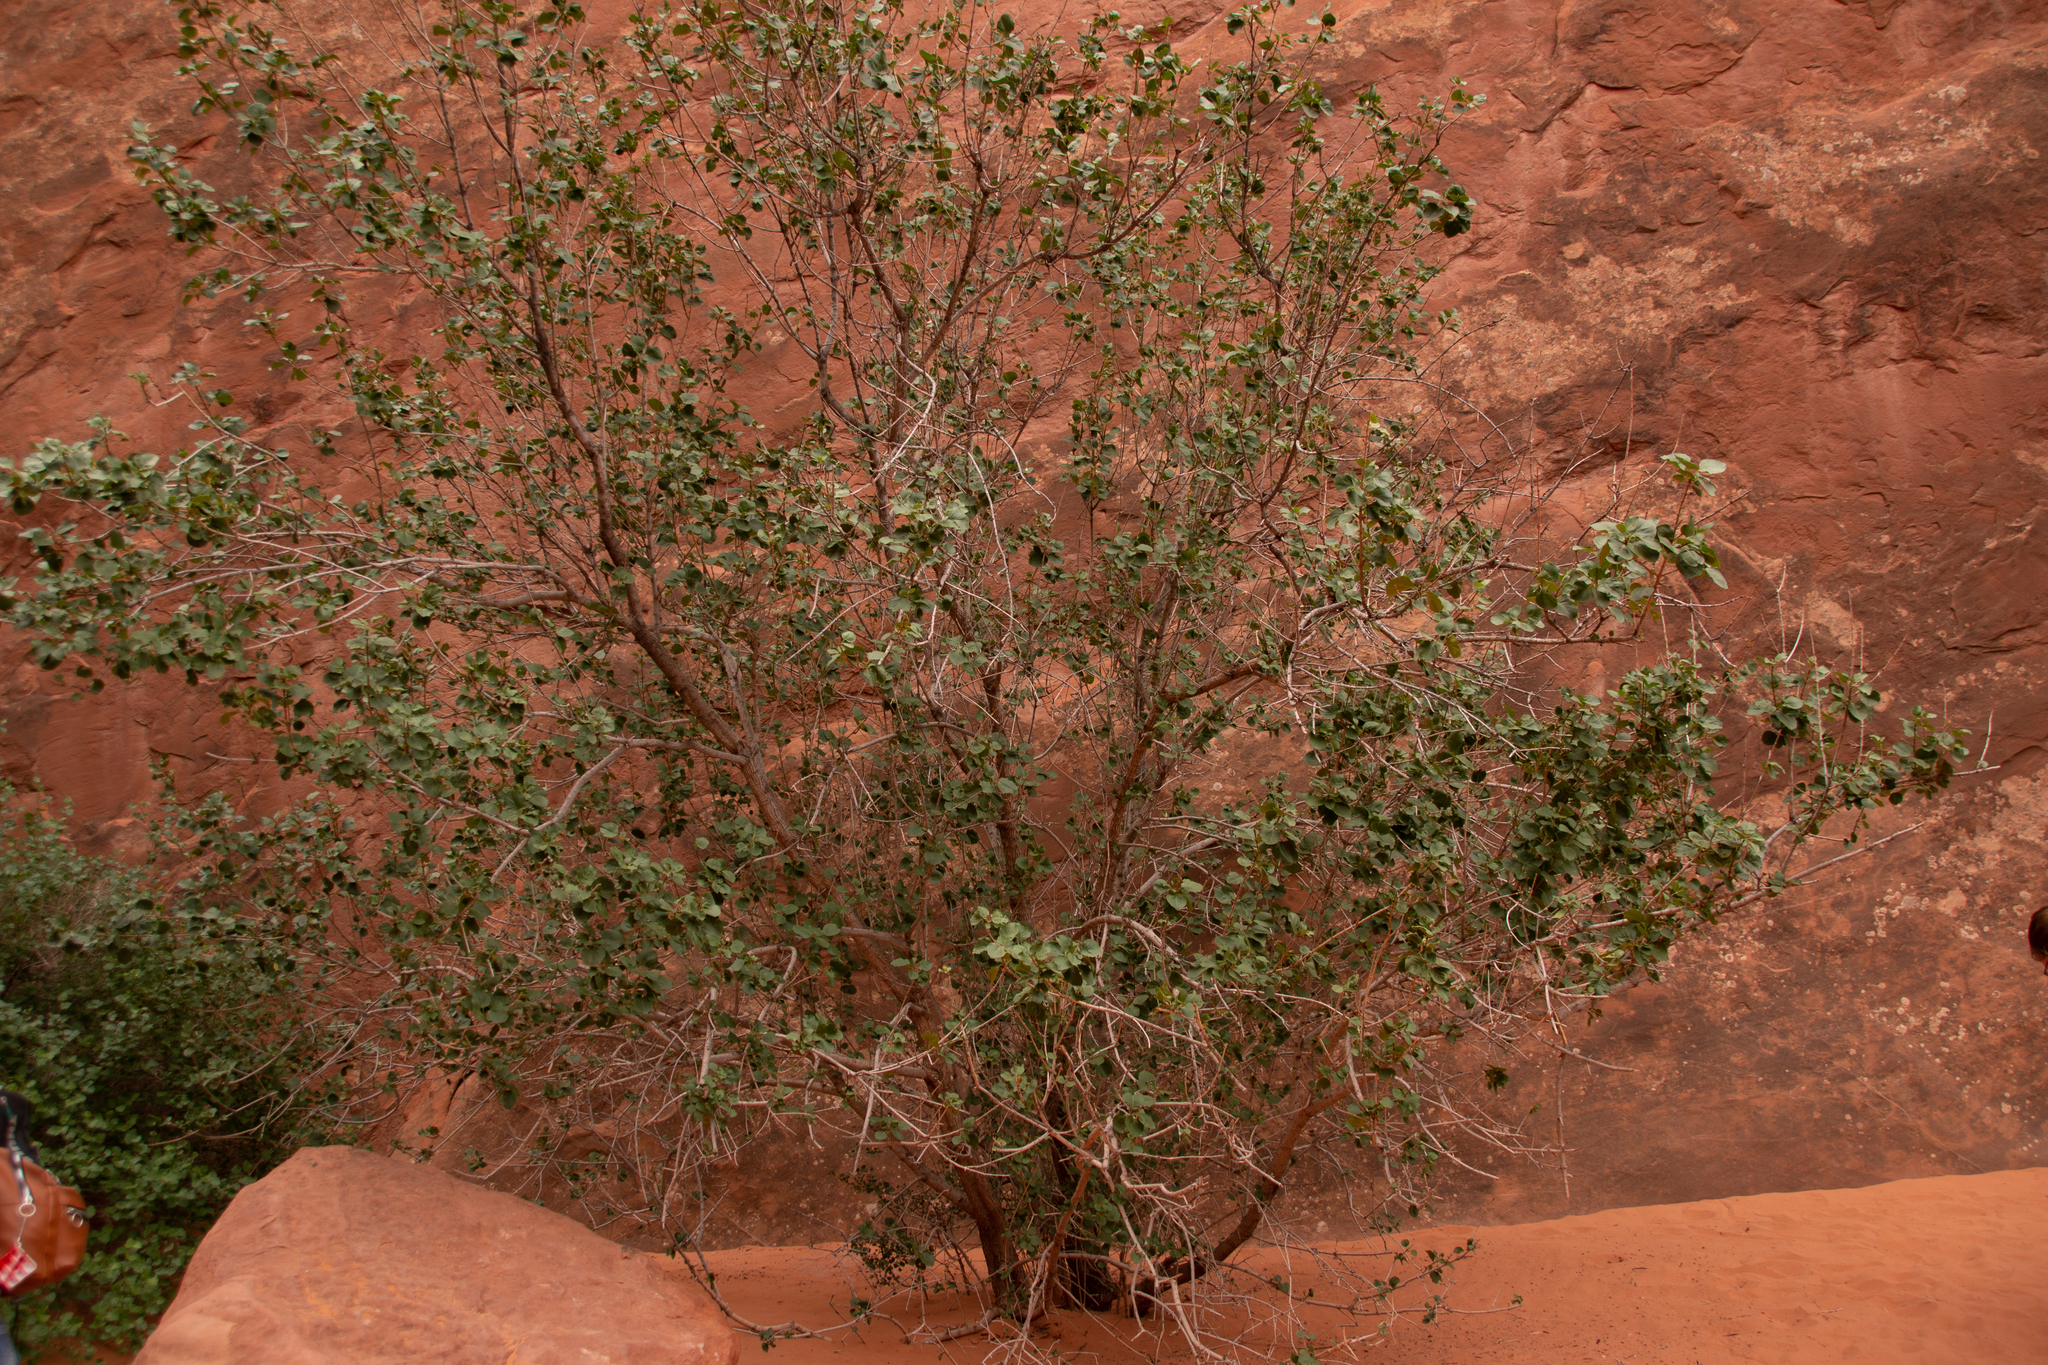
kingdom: Plantae
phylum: Tracheophyta
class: Magnoliopsida
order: Lamiales
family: Oleaceae
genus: Fraxinus
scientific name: Fraxinus anomala
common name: Utah ash
